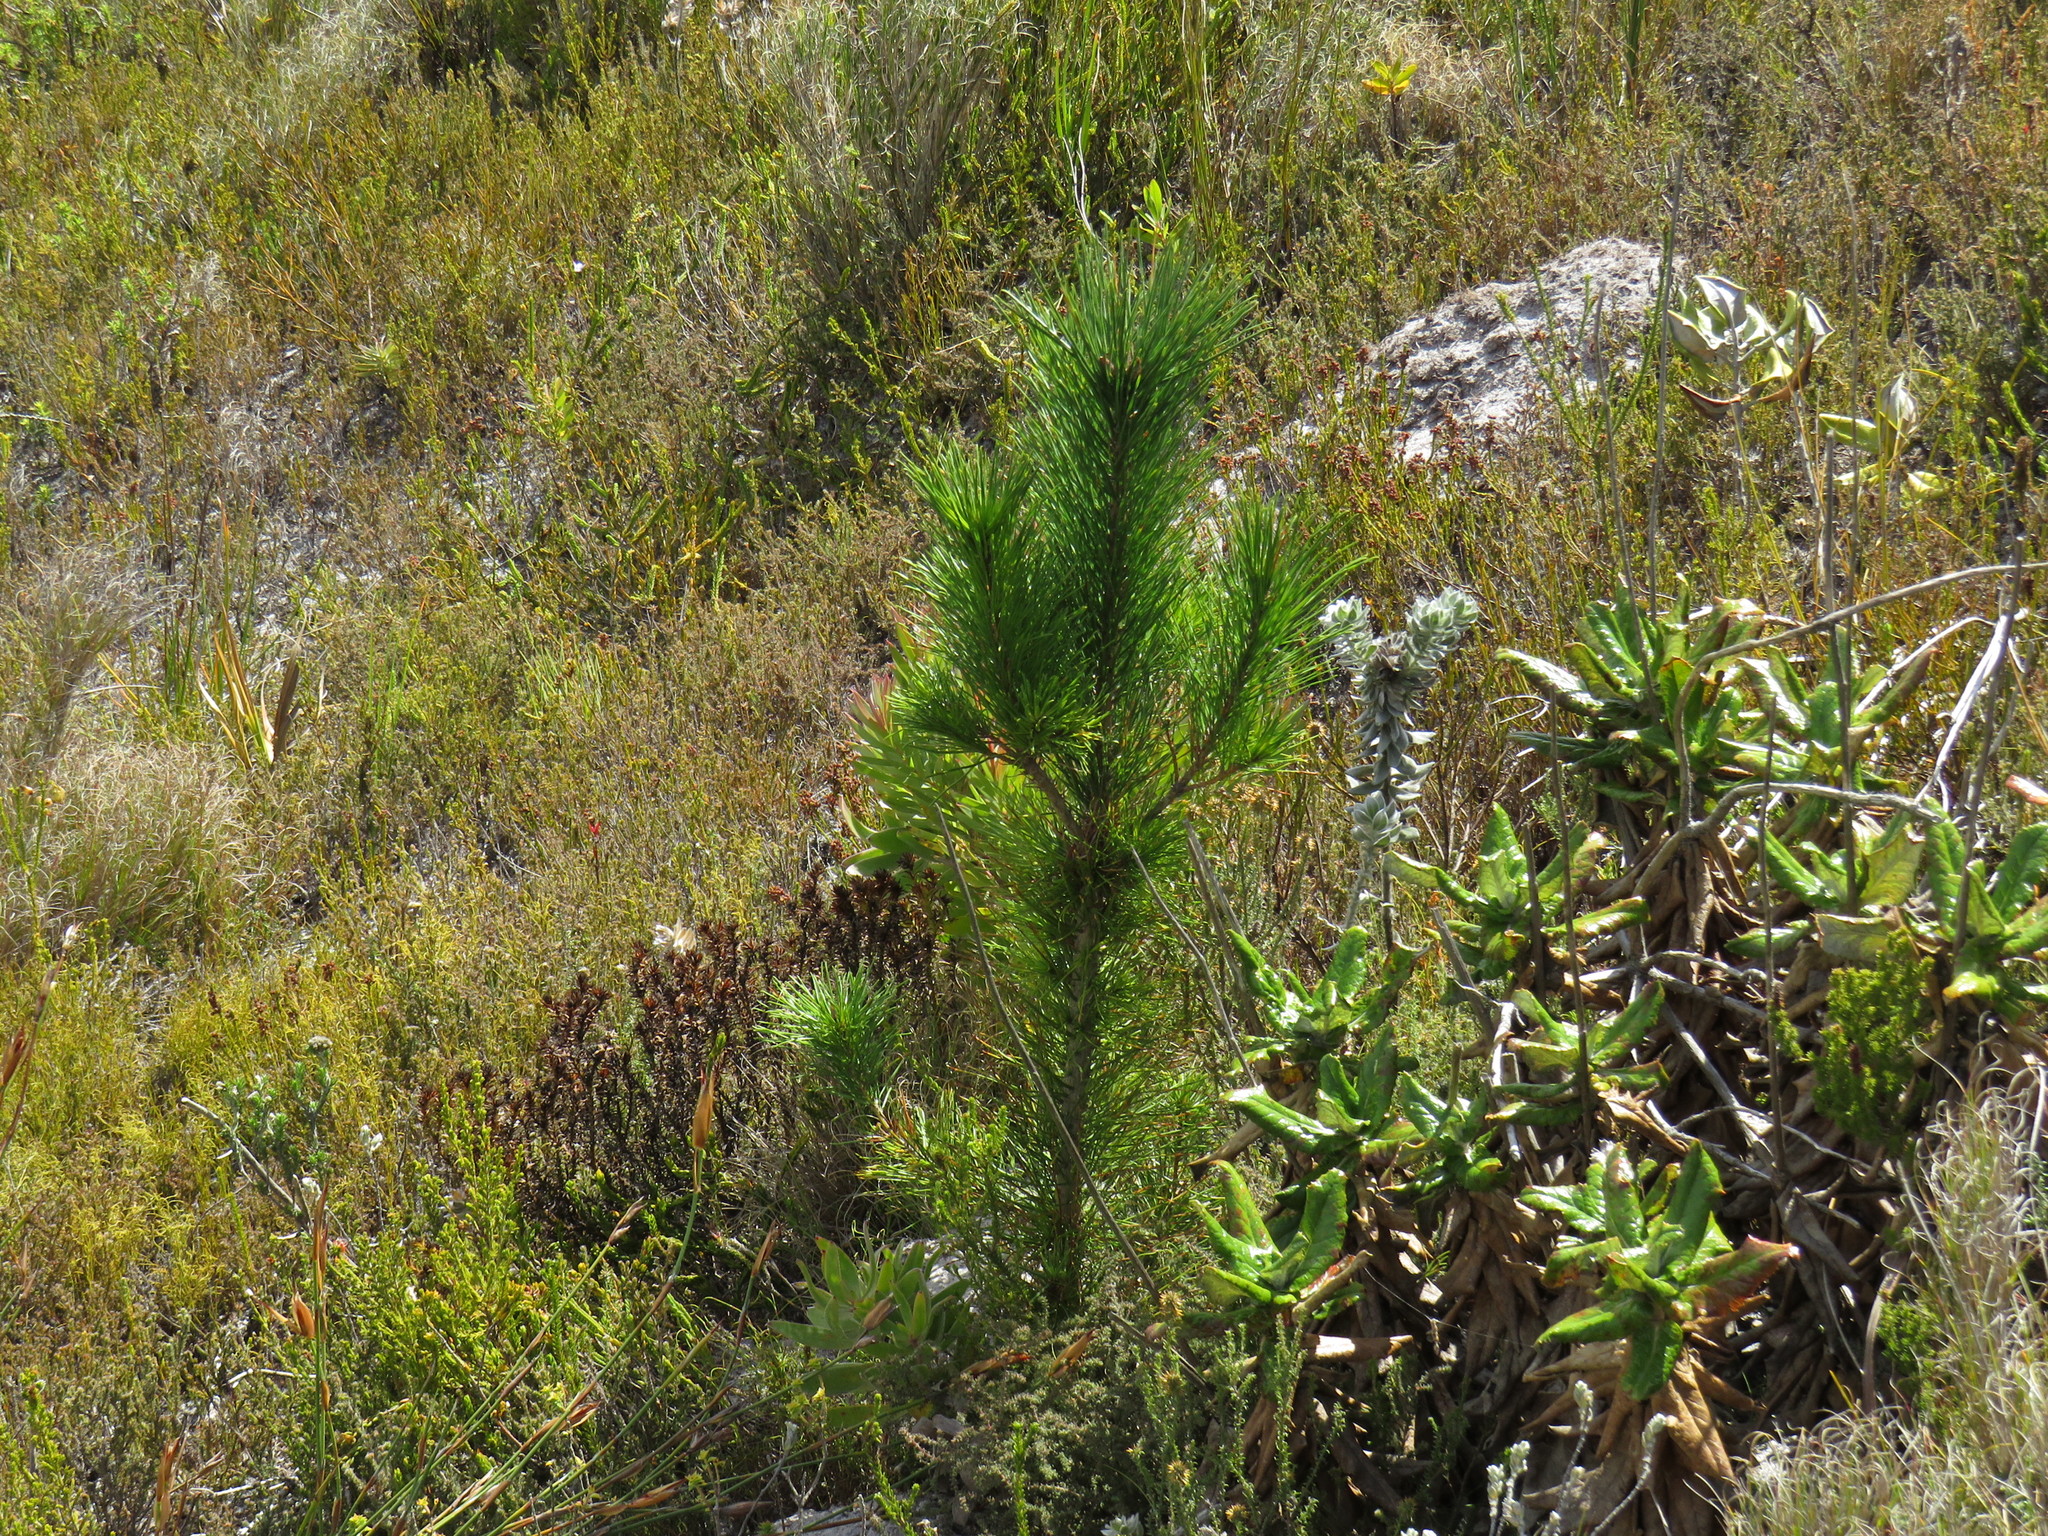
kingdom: Plantae
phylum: Tracheophyta
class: Pinopsida
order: Pinales
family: Pinaceae
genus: Pinus
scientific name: Pinus radiata
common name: Monterey pine
